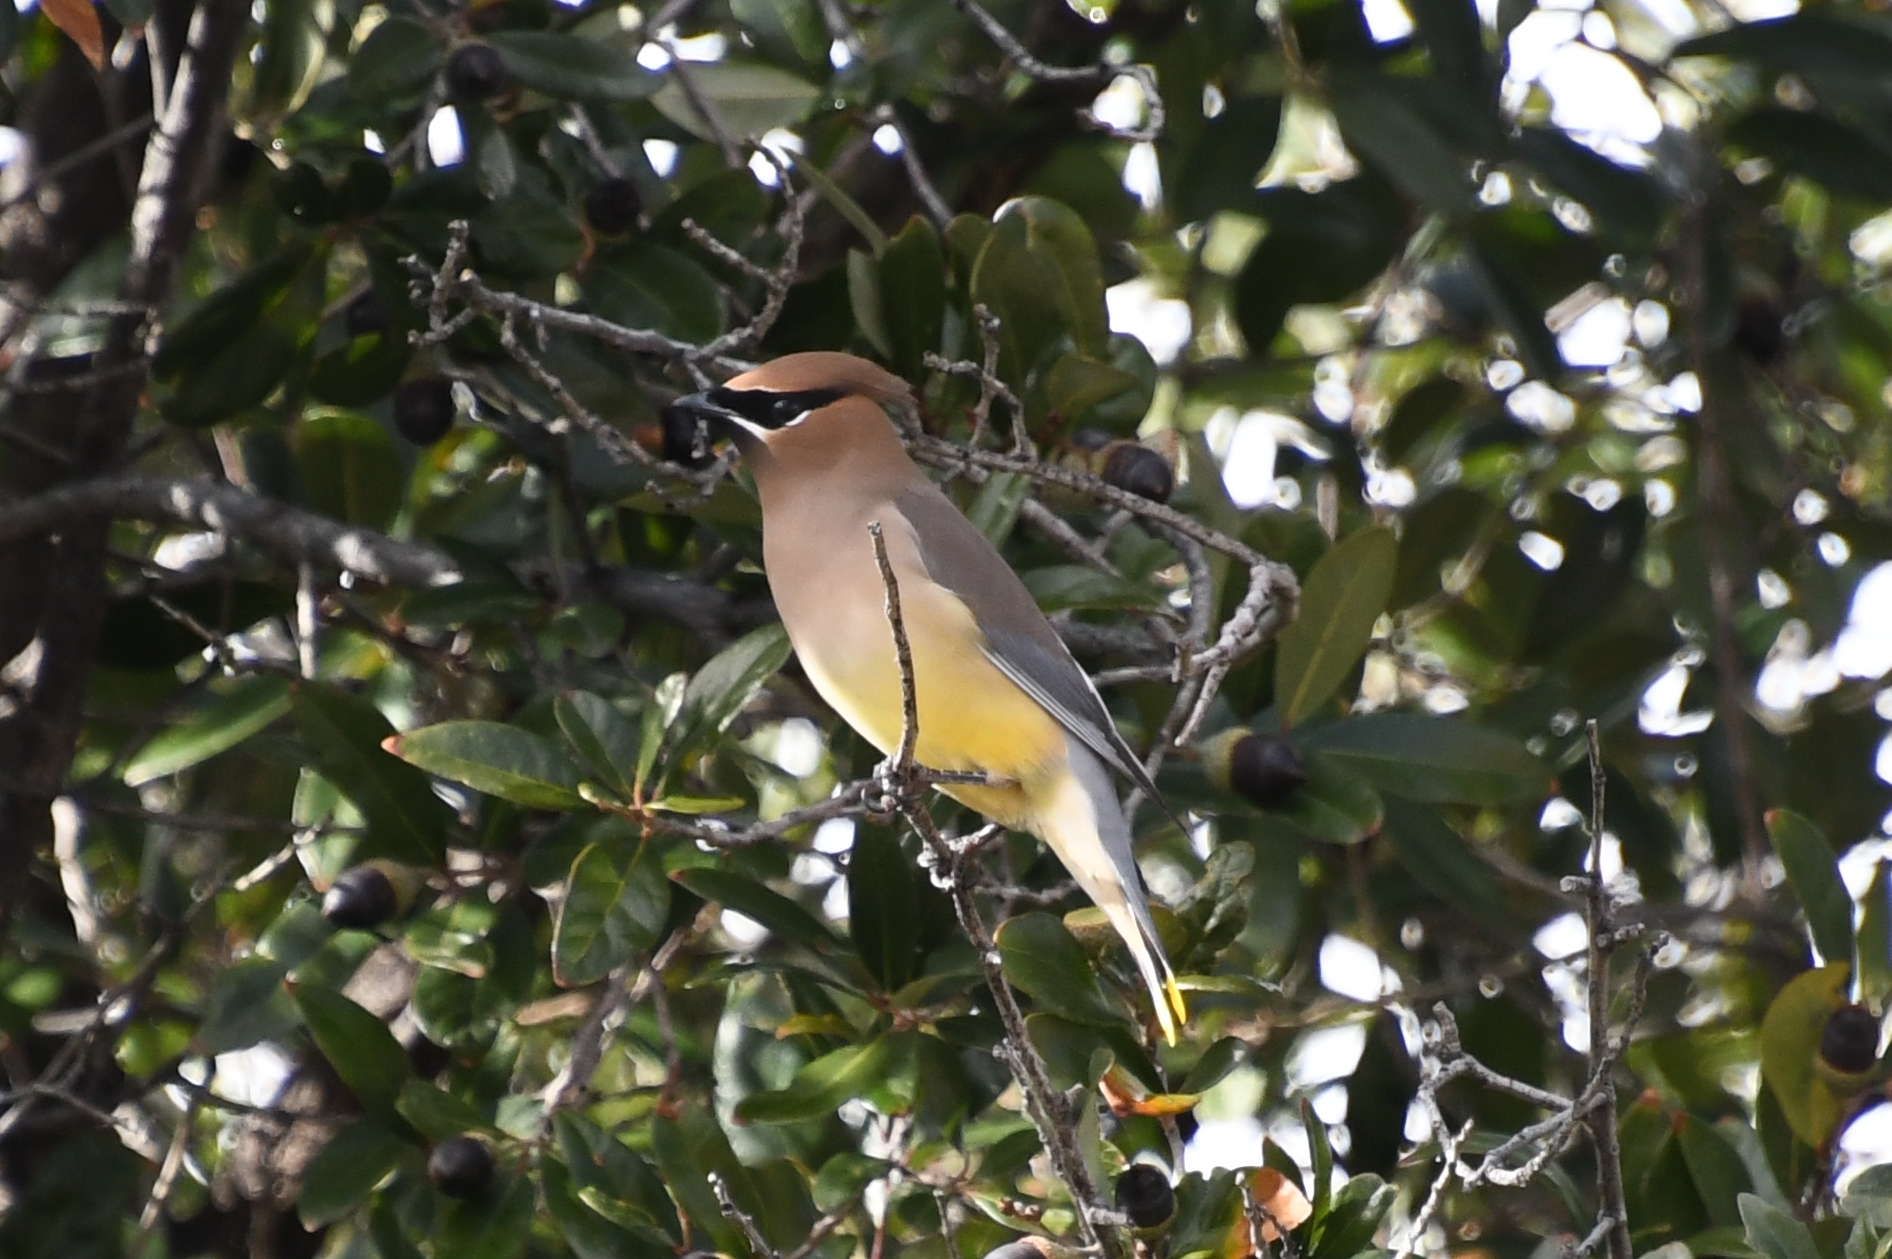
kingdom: Animalia
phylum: Chordata
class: Aves
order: Passeriformes
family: Bombycillidae
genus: Bombycilla
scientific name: Bombycilla cedrorum
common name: Cedar waxwing
